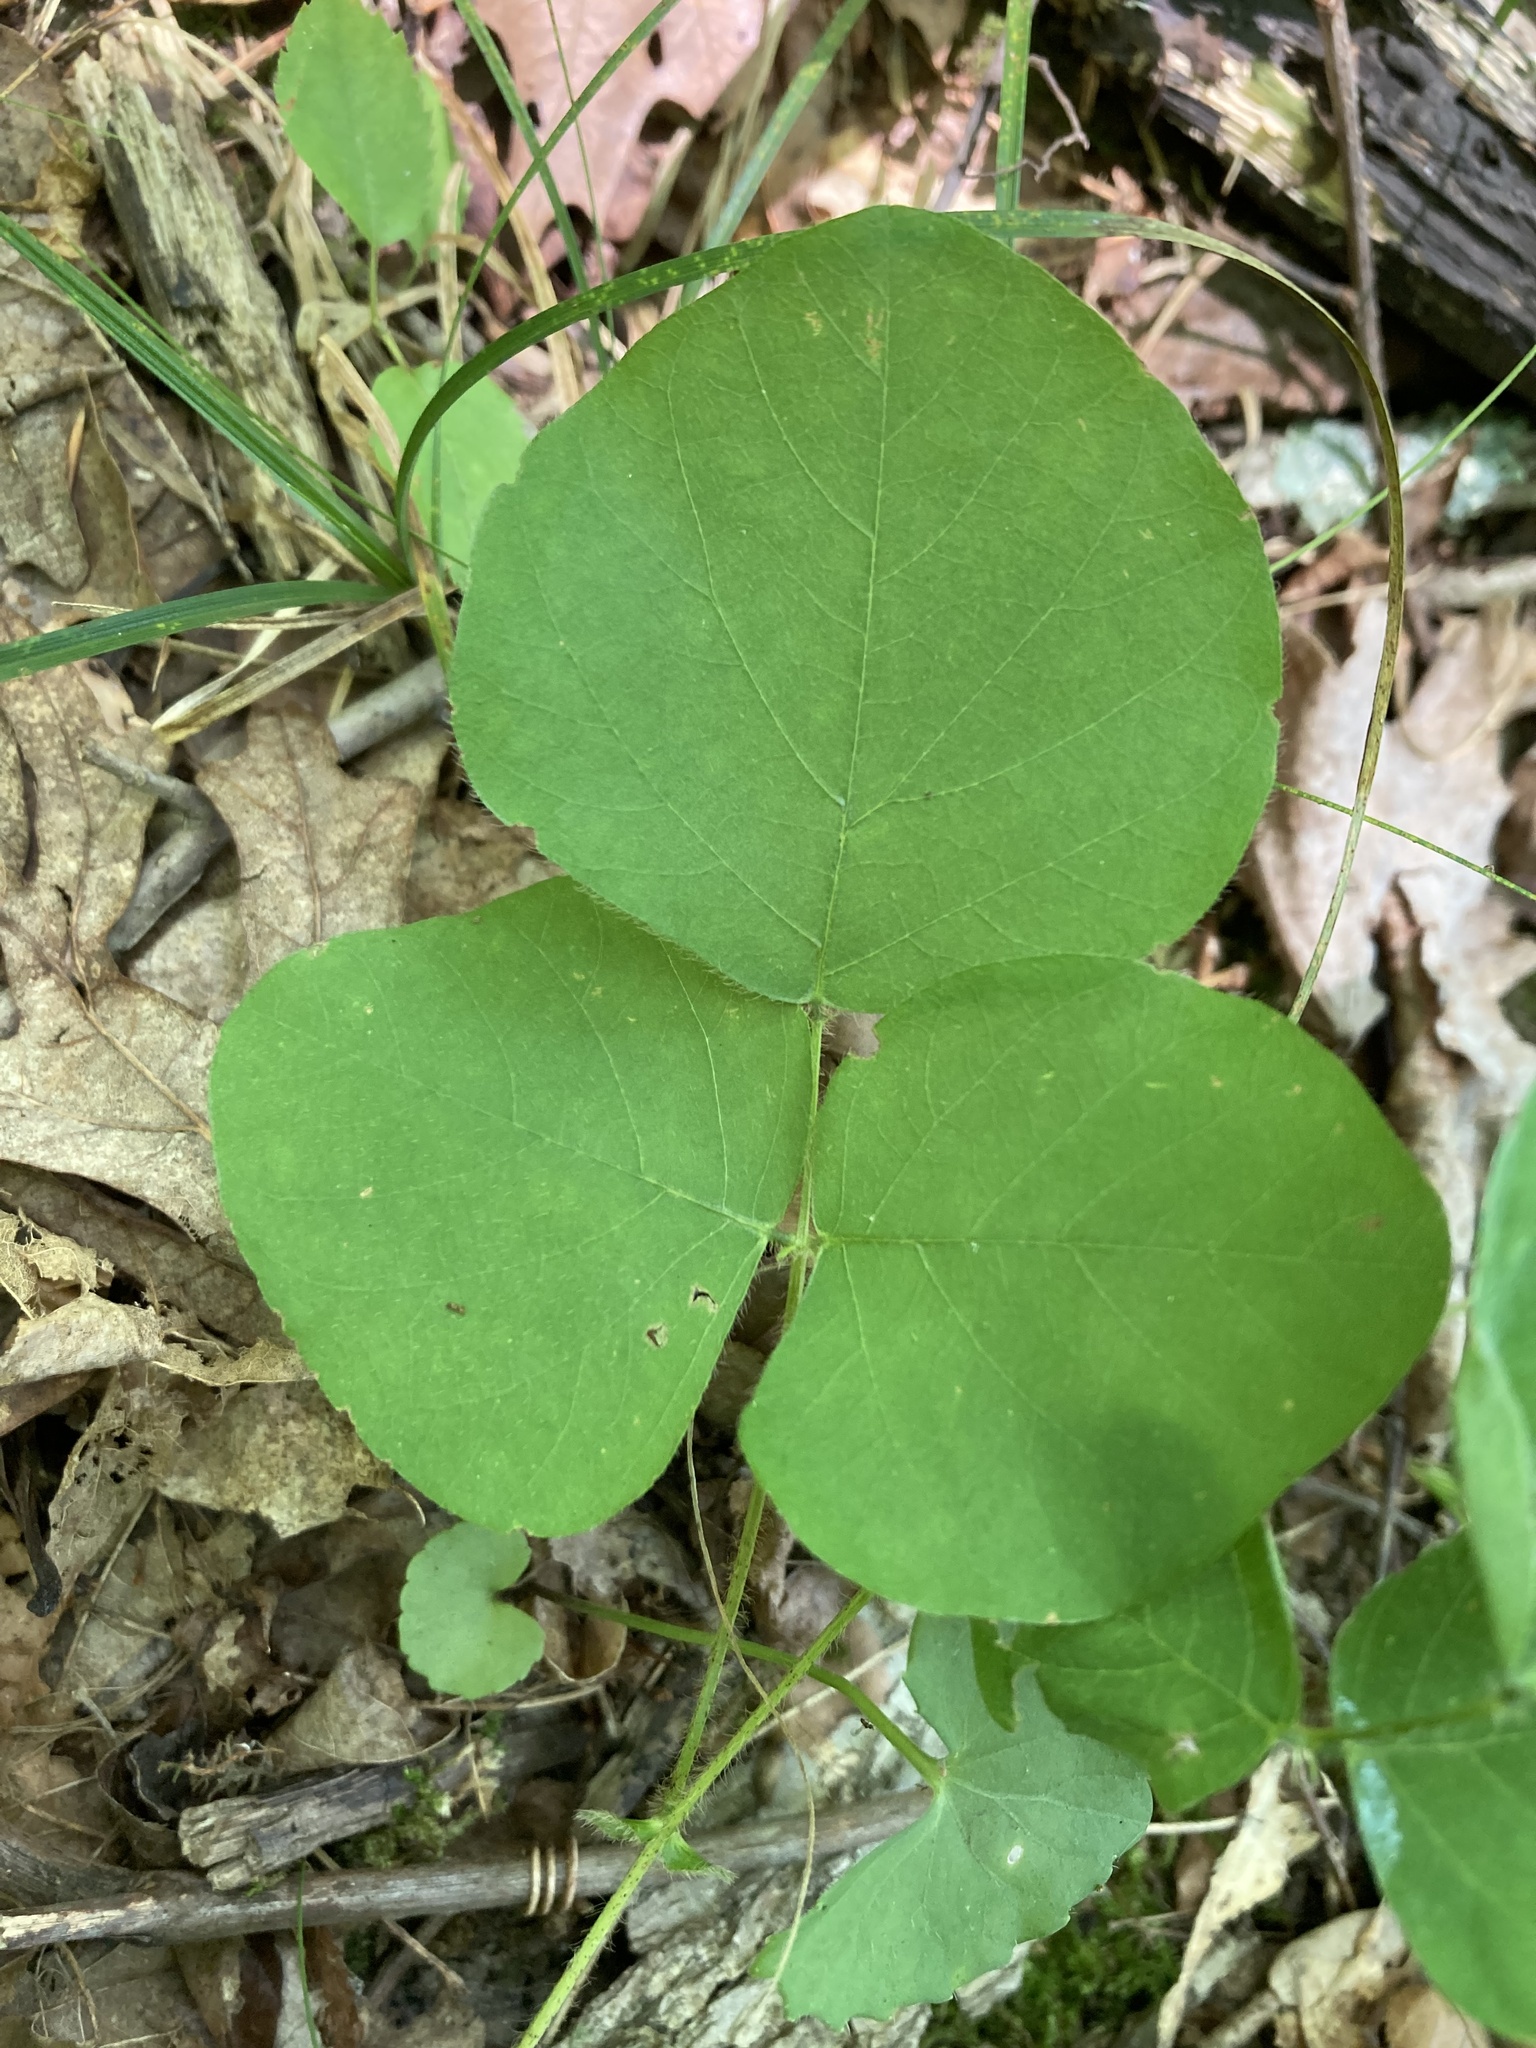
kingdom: Plantae
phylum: Tracheophyta
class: Magnoliopsida
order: Fabales
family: Fabaceae
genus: Desmodium
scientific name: Desmodium rotundifolium
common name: Dollarleaf
